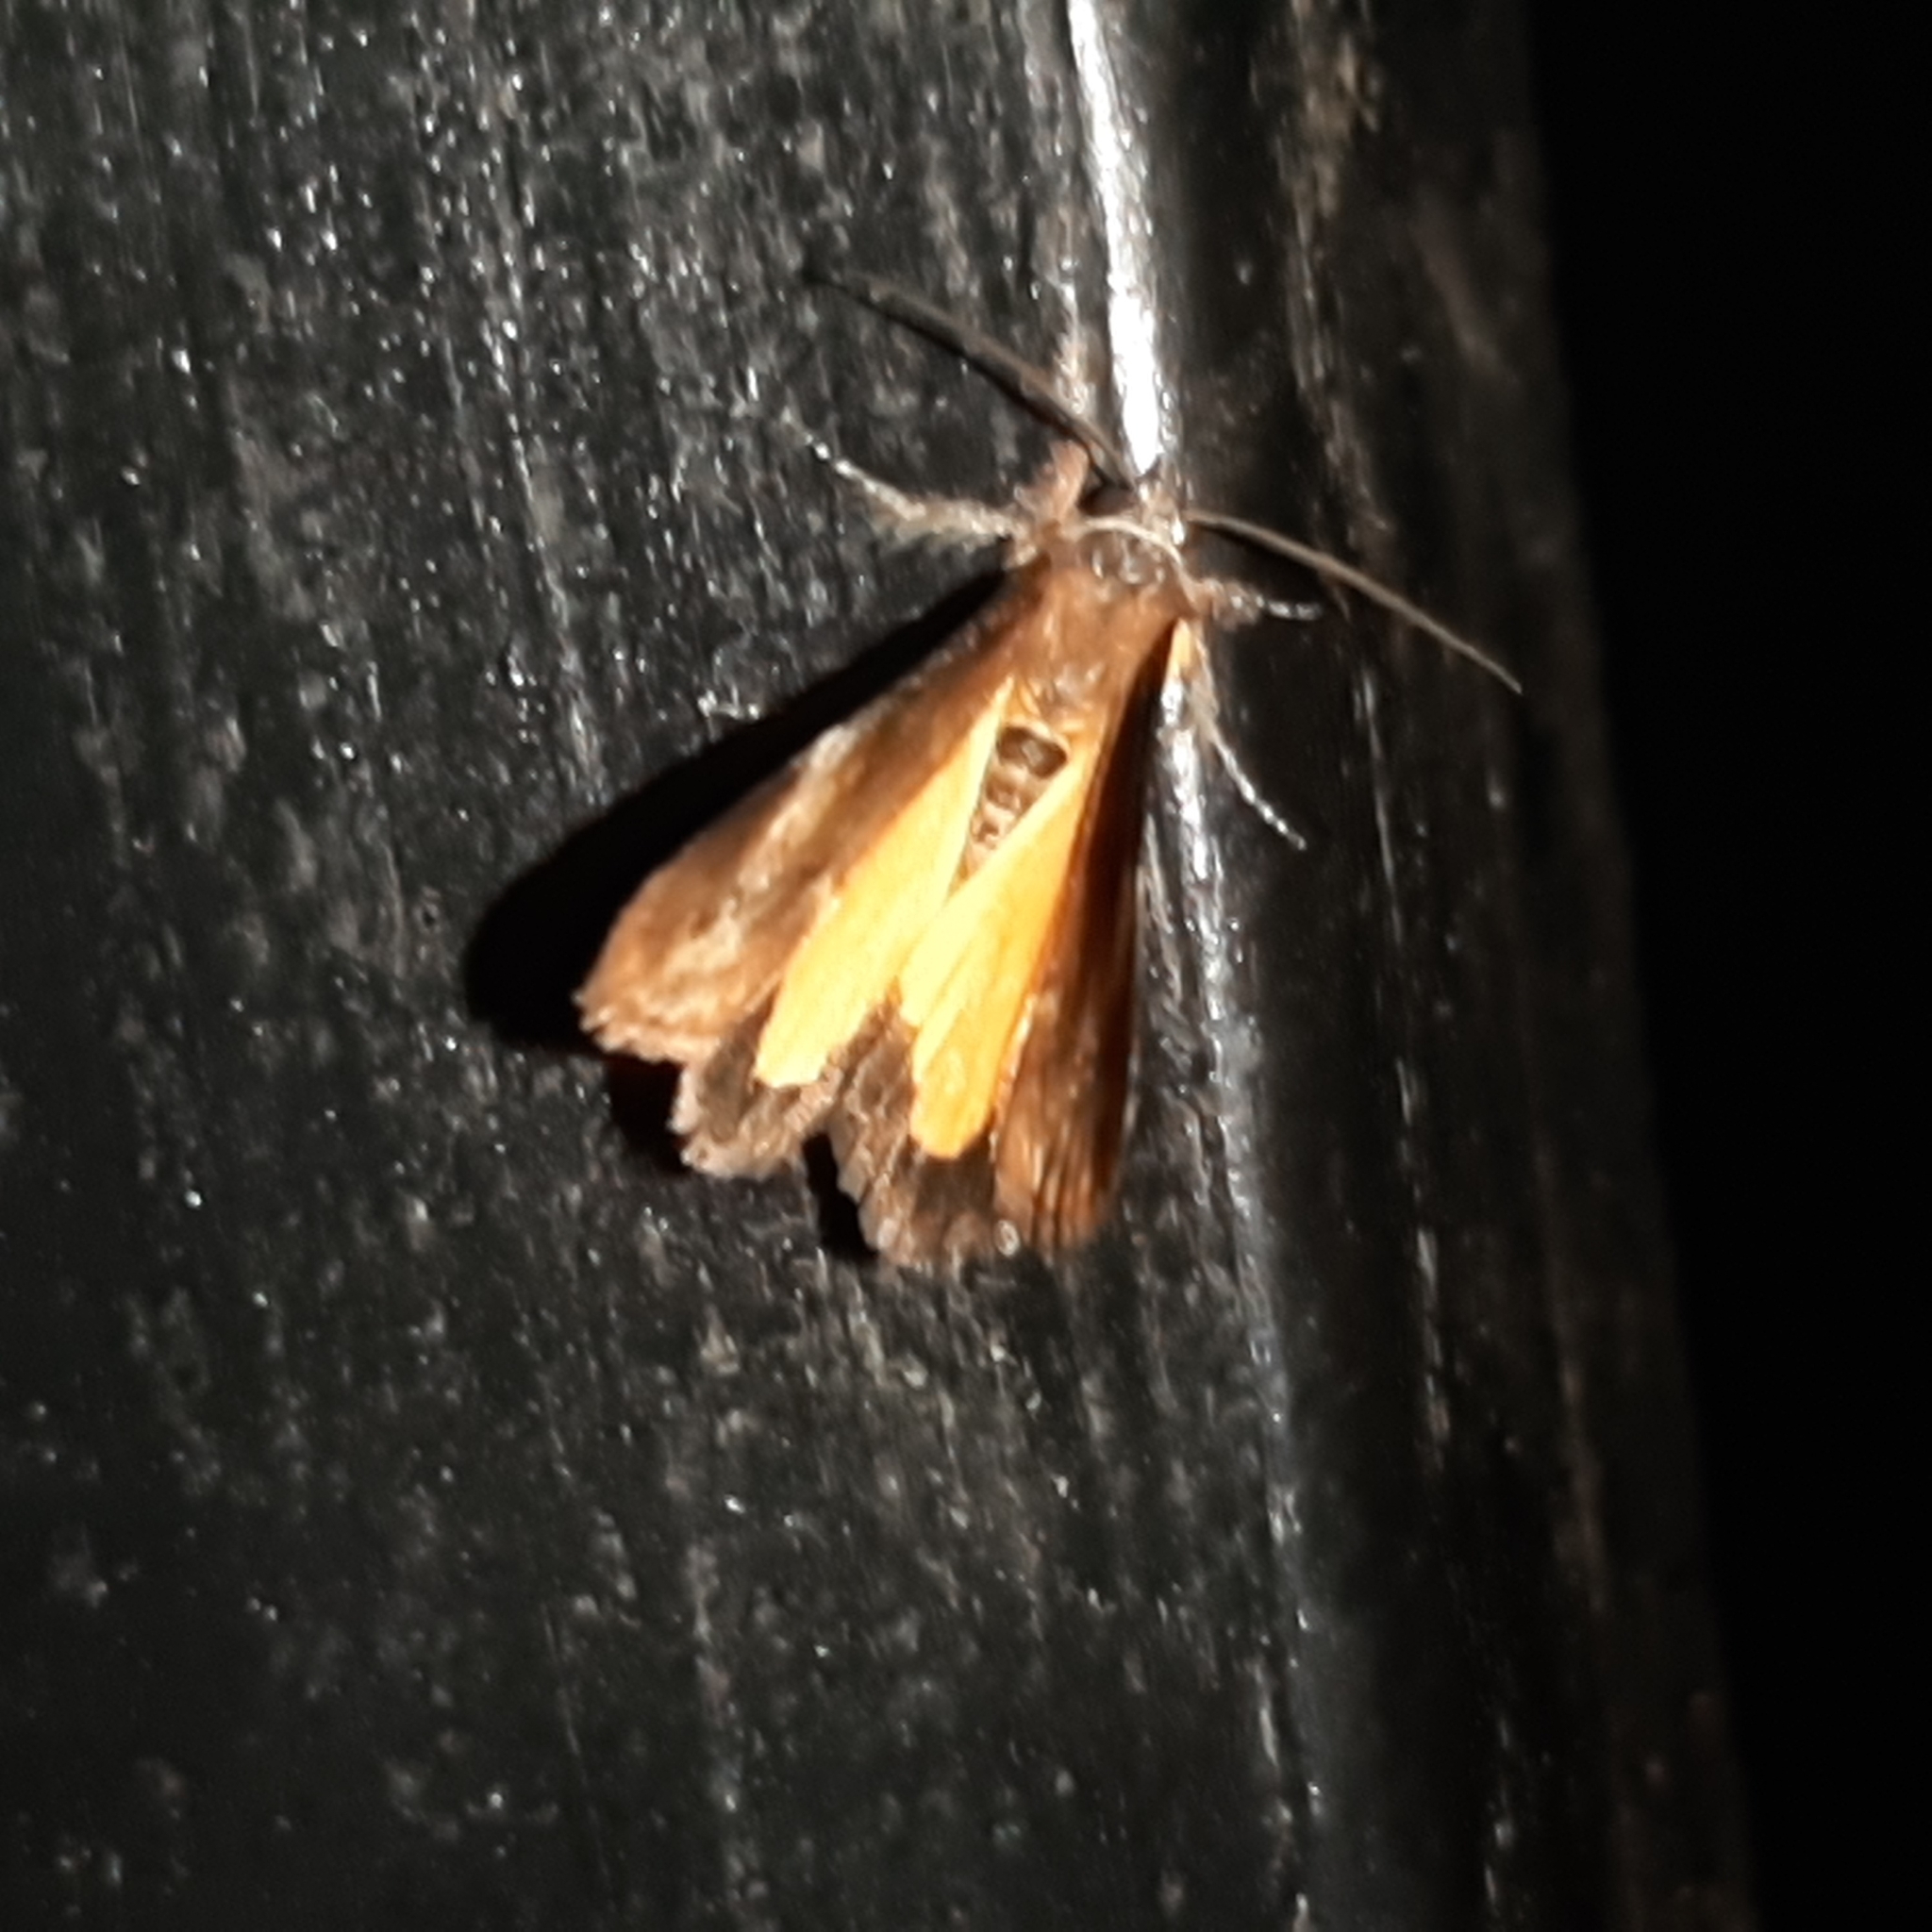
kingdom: Animalia
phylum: Arthropoda
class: Insecta
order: Lepidoptera
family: Noctuidae
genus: Gerra
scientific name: Gerra aelia
